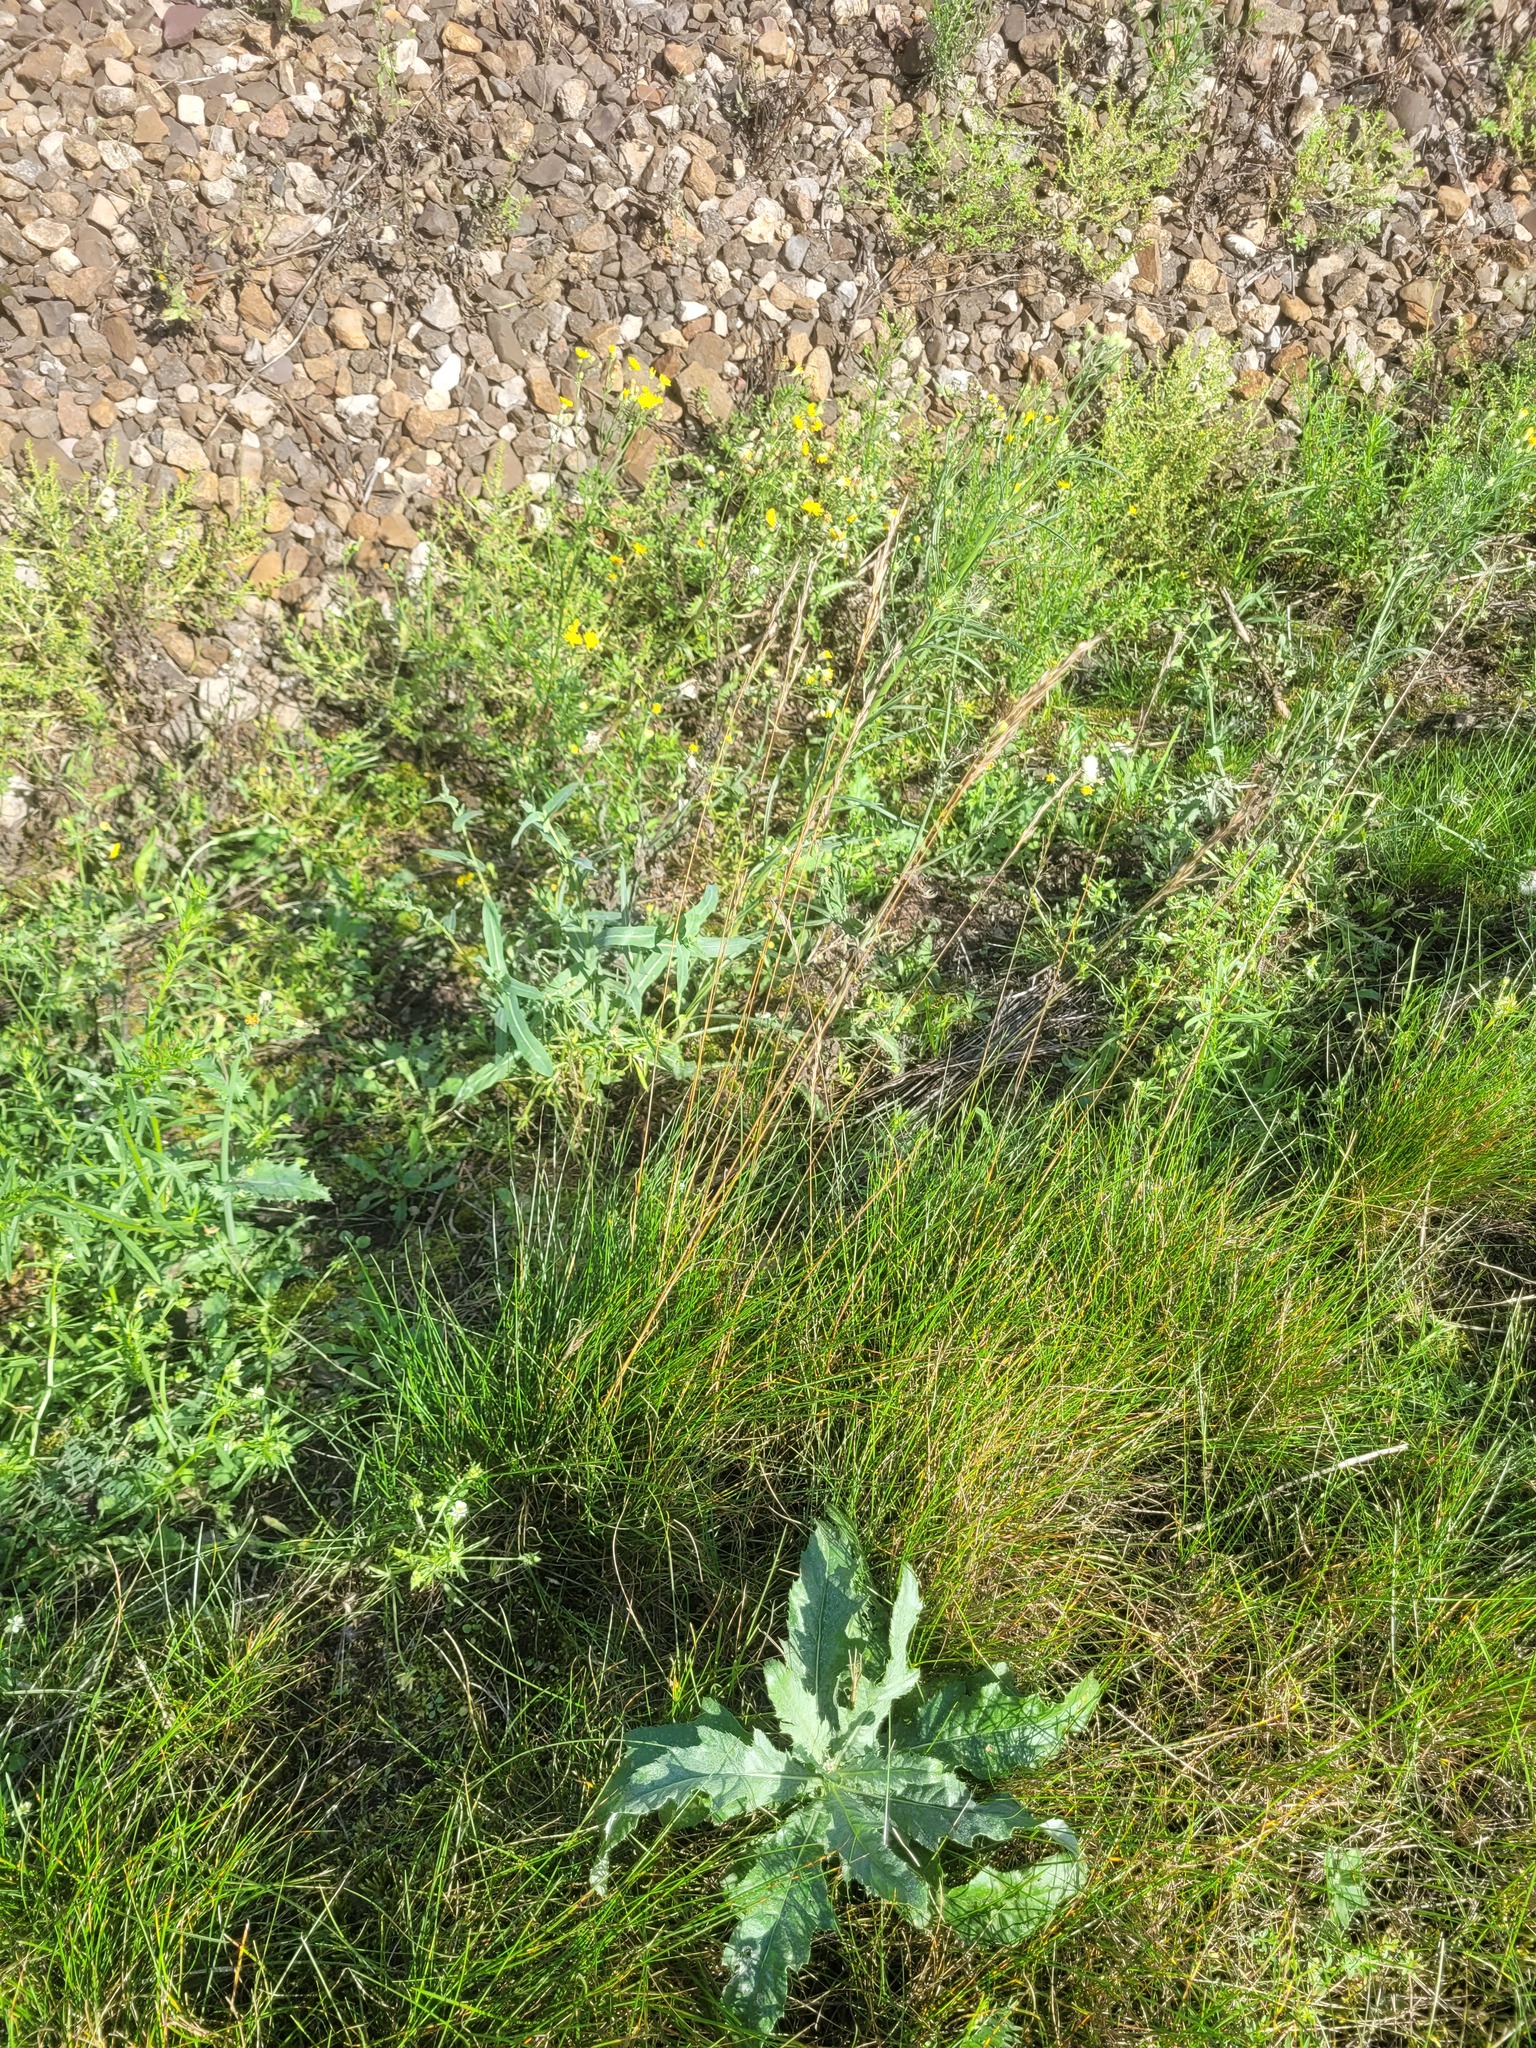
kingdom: Plantae
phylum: Tracheophyta
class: Liliopsida
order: Poales
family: Poaceae
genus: Festuca
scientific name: Festuca rubra
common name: Red fescue
